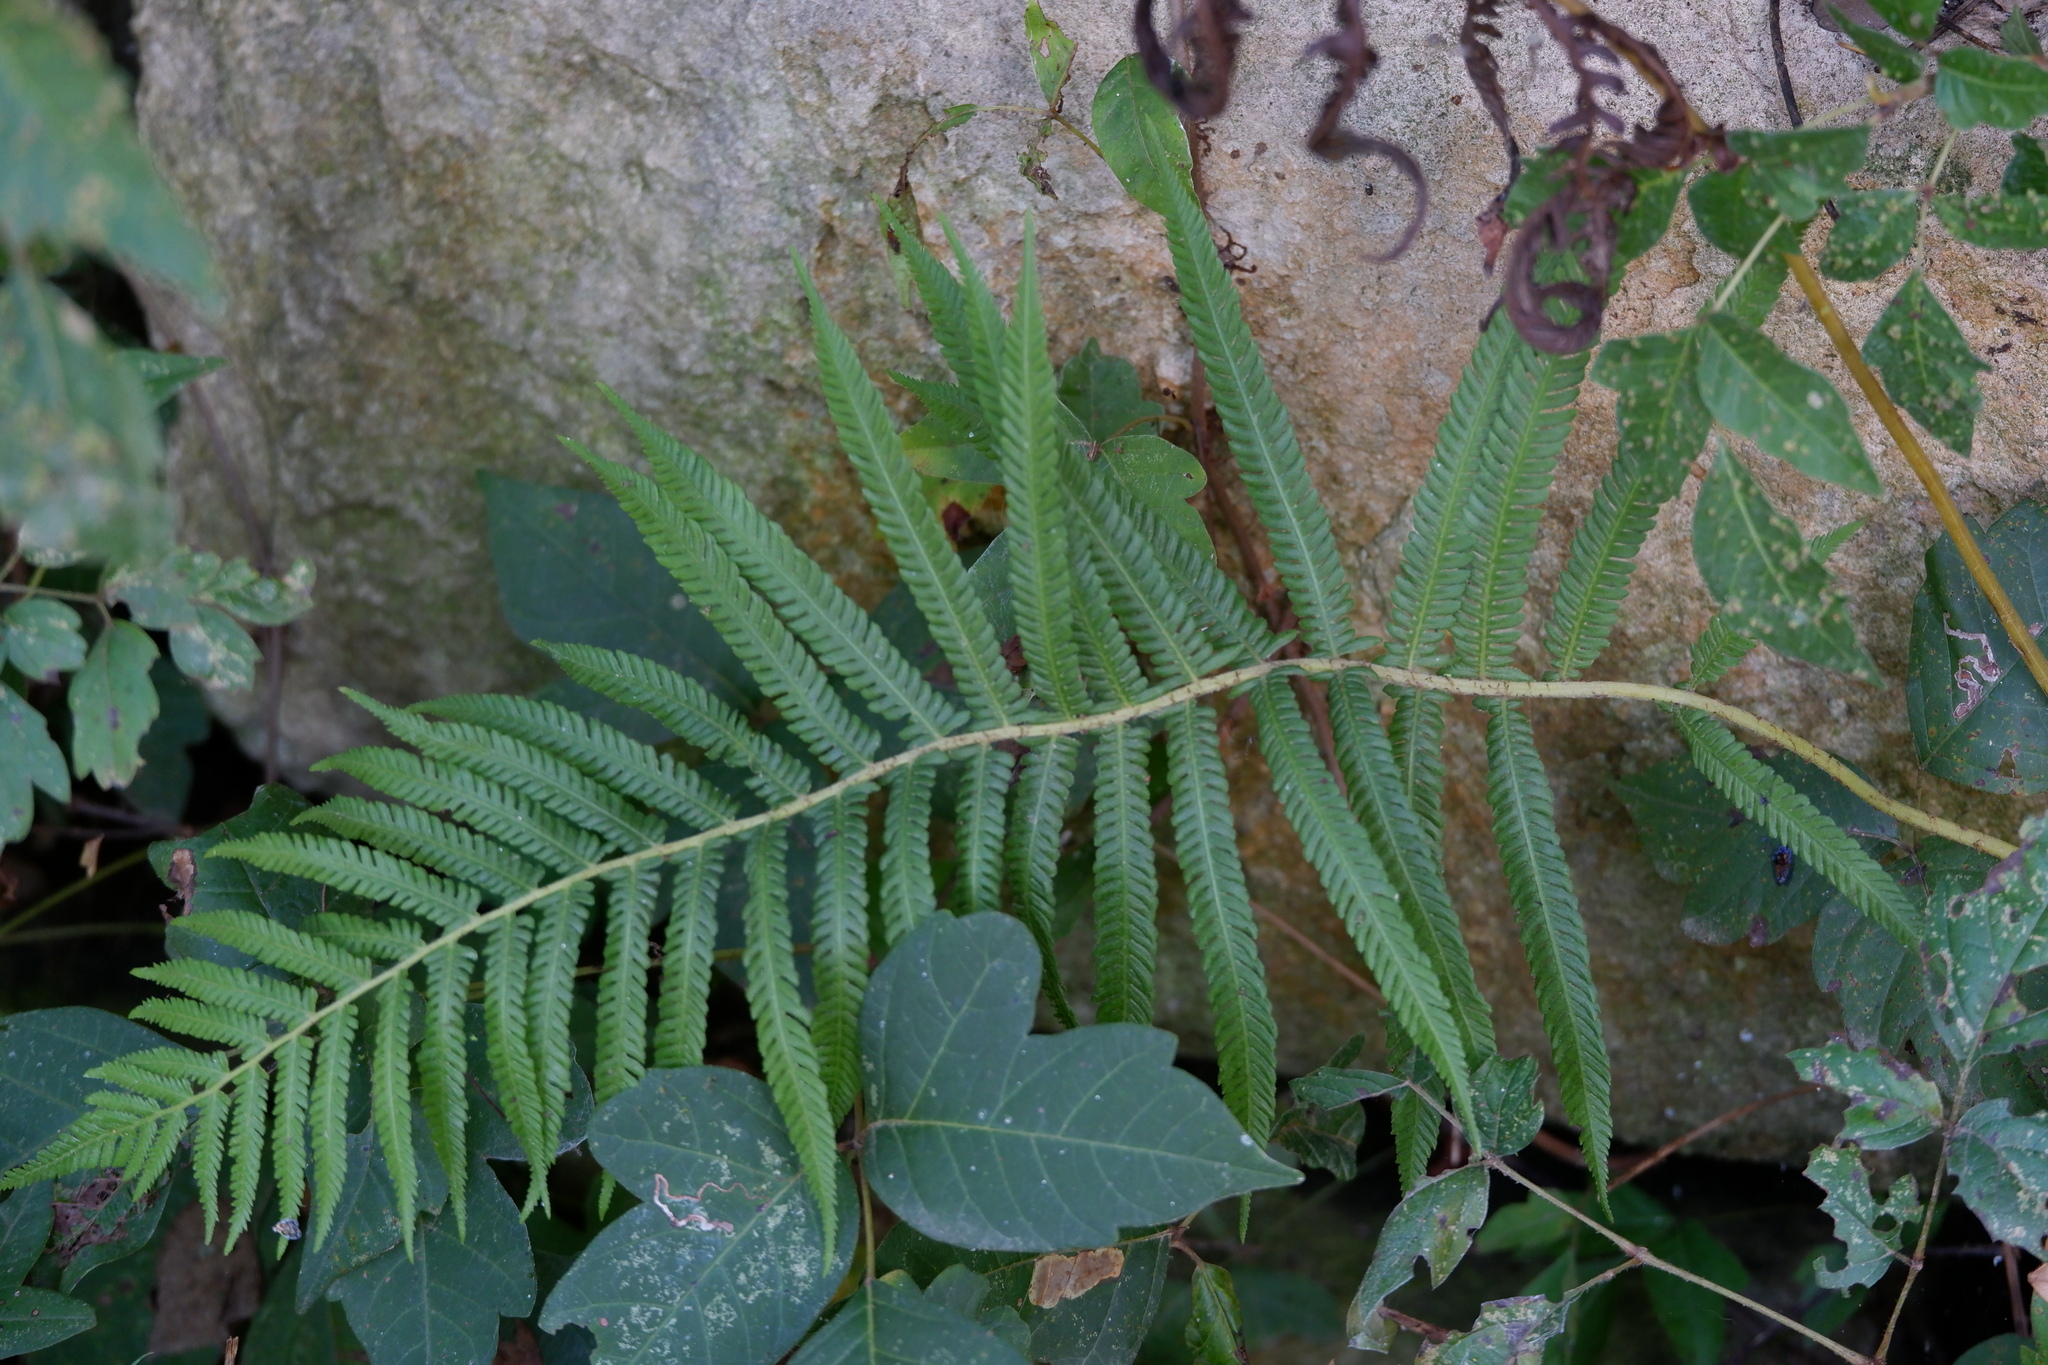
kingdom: Plantae
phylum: Tracheophyta
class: Polypodiopsida
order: Polypodiales
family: Thelypteridaceae
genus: Pelazoneuron
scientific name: Pelazoneuron ovatum
